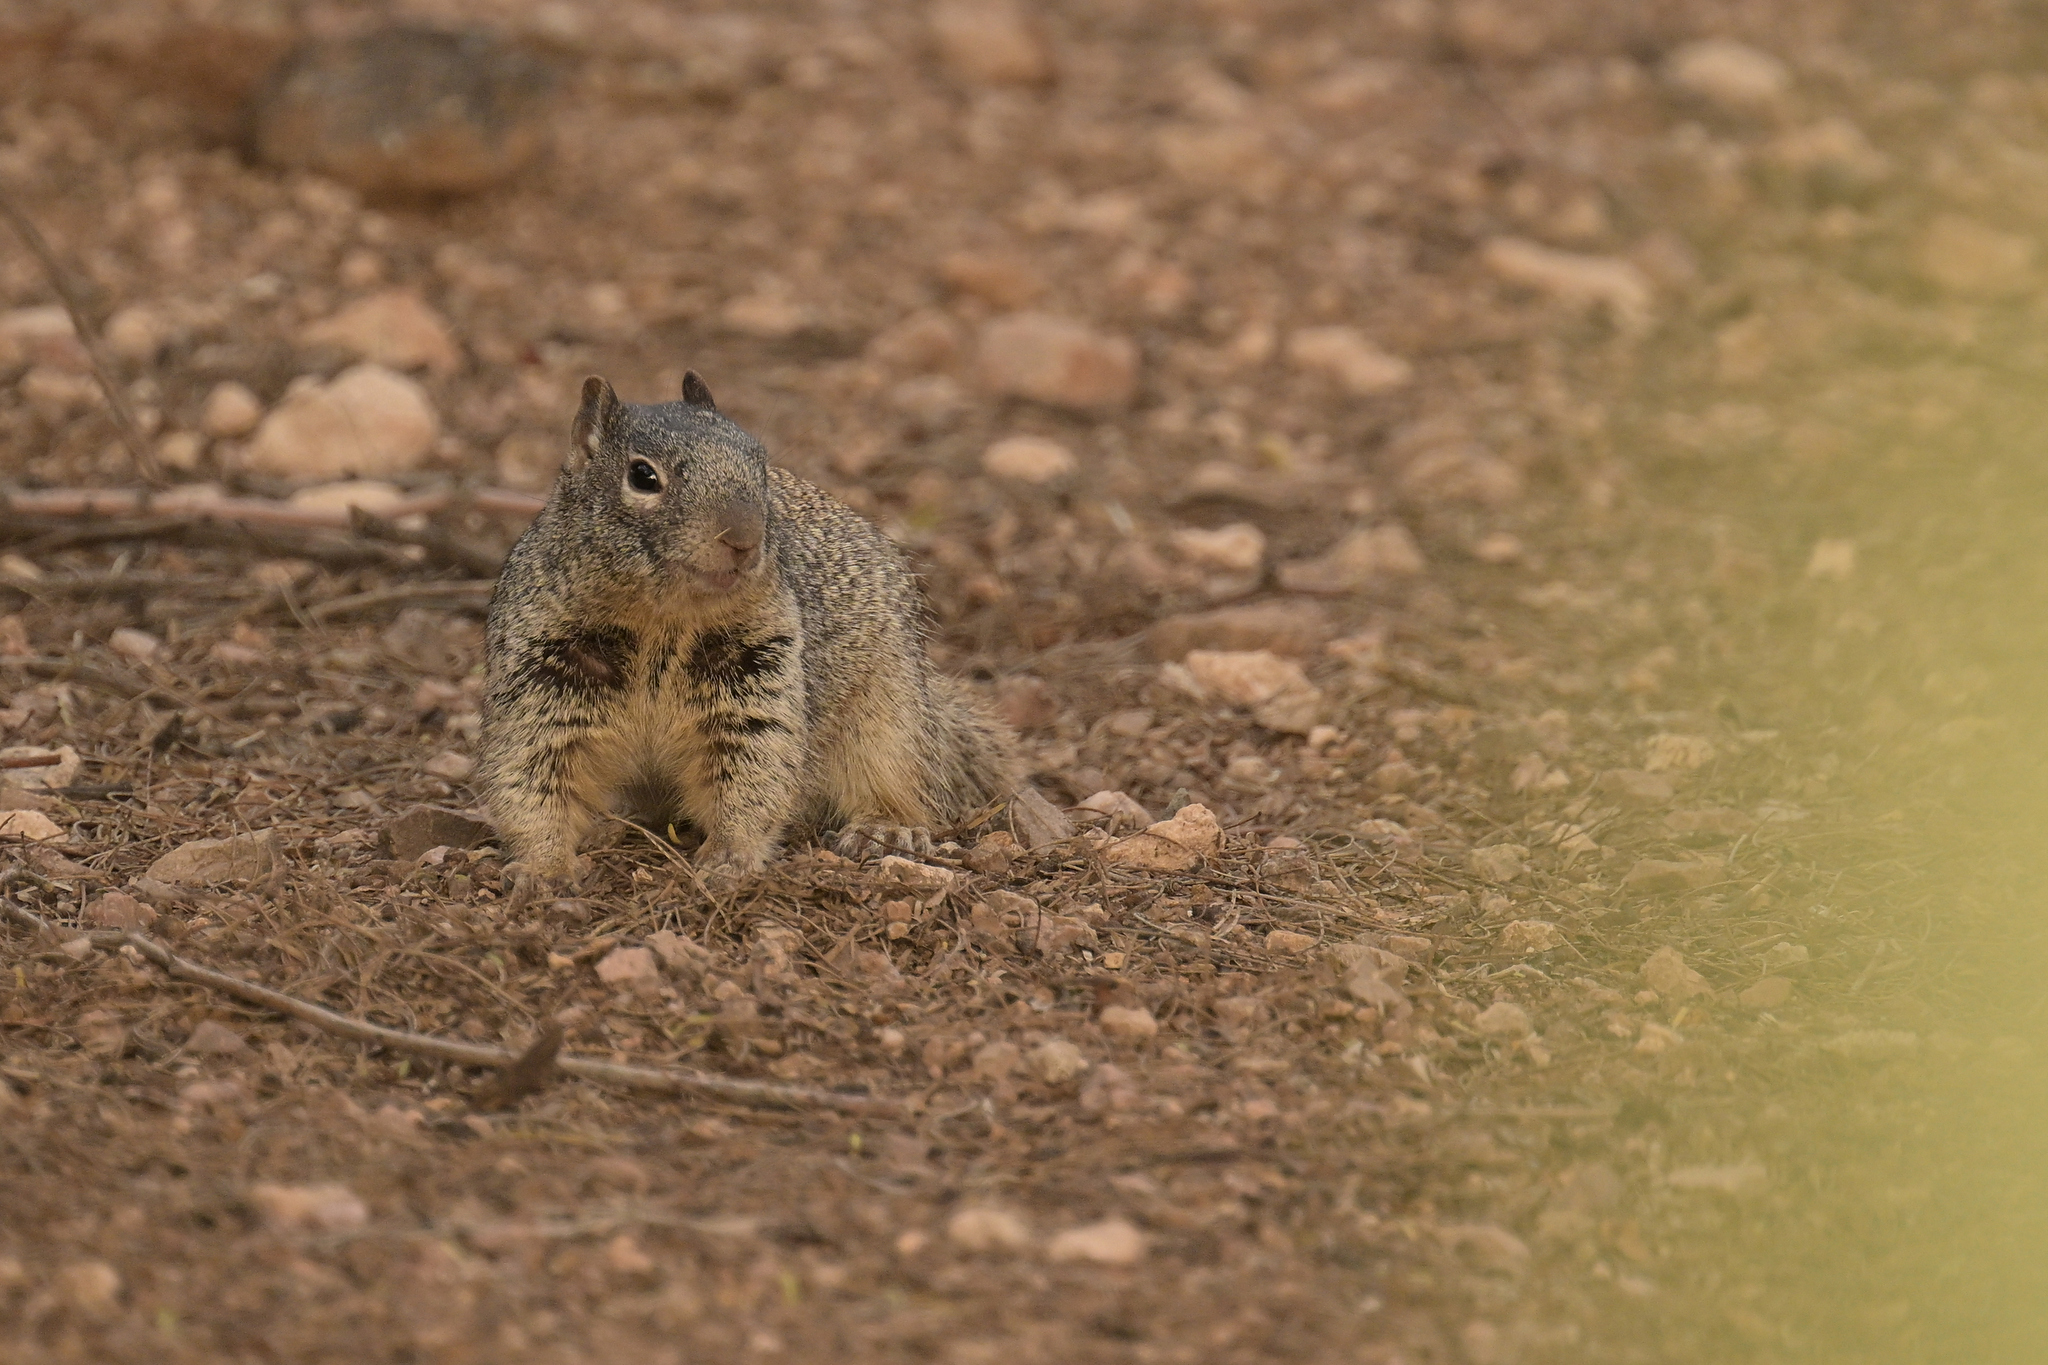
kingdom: Animalia
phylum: Chordata
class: Mammalia
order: Rodentia
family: Sciuridae
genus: Otospermophilus
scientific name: Otospermophilus variegatus
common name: Rock squirrel
